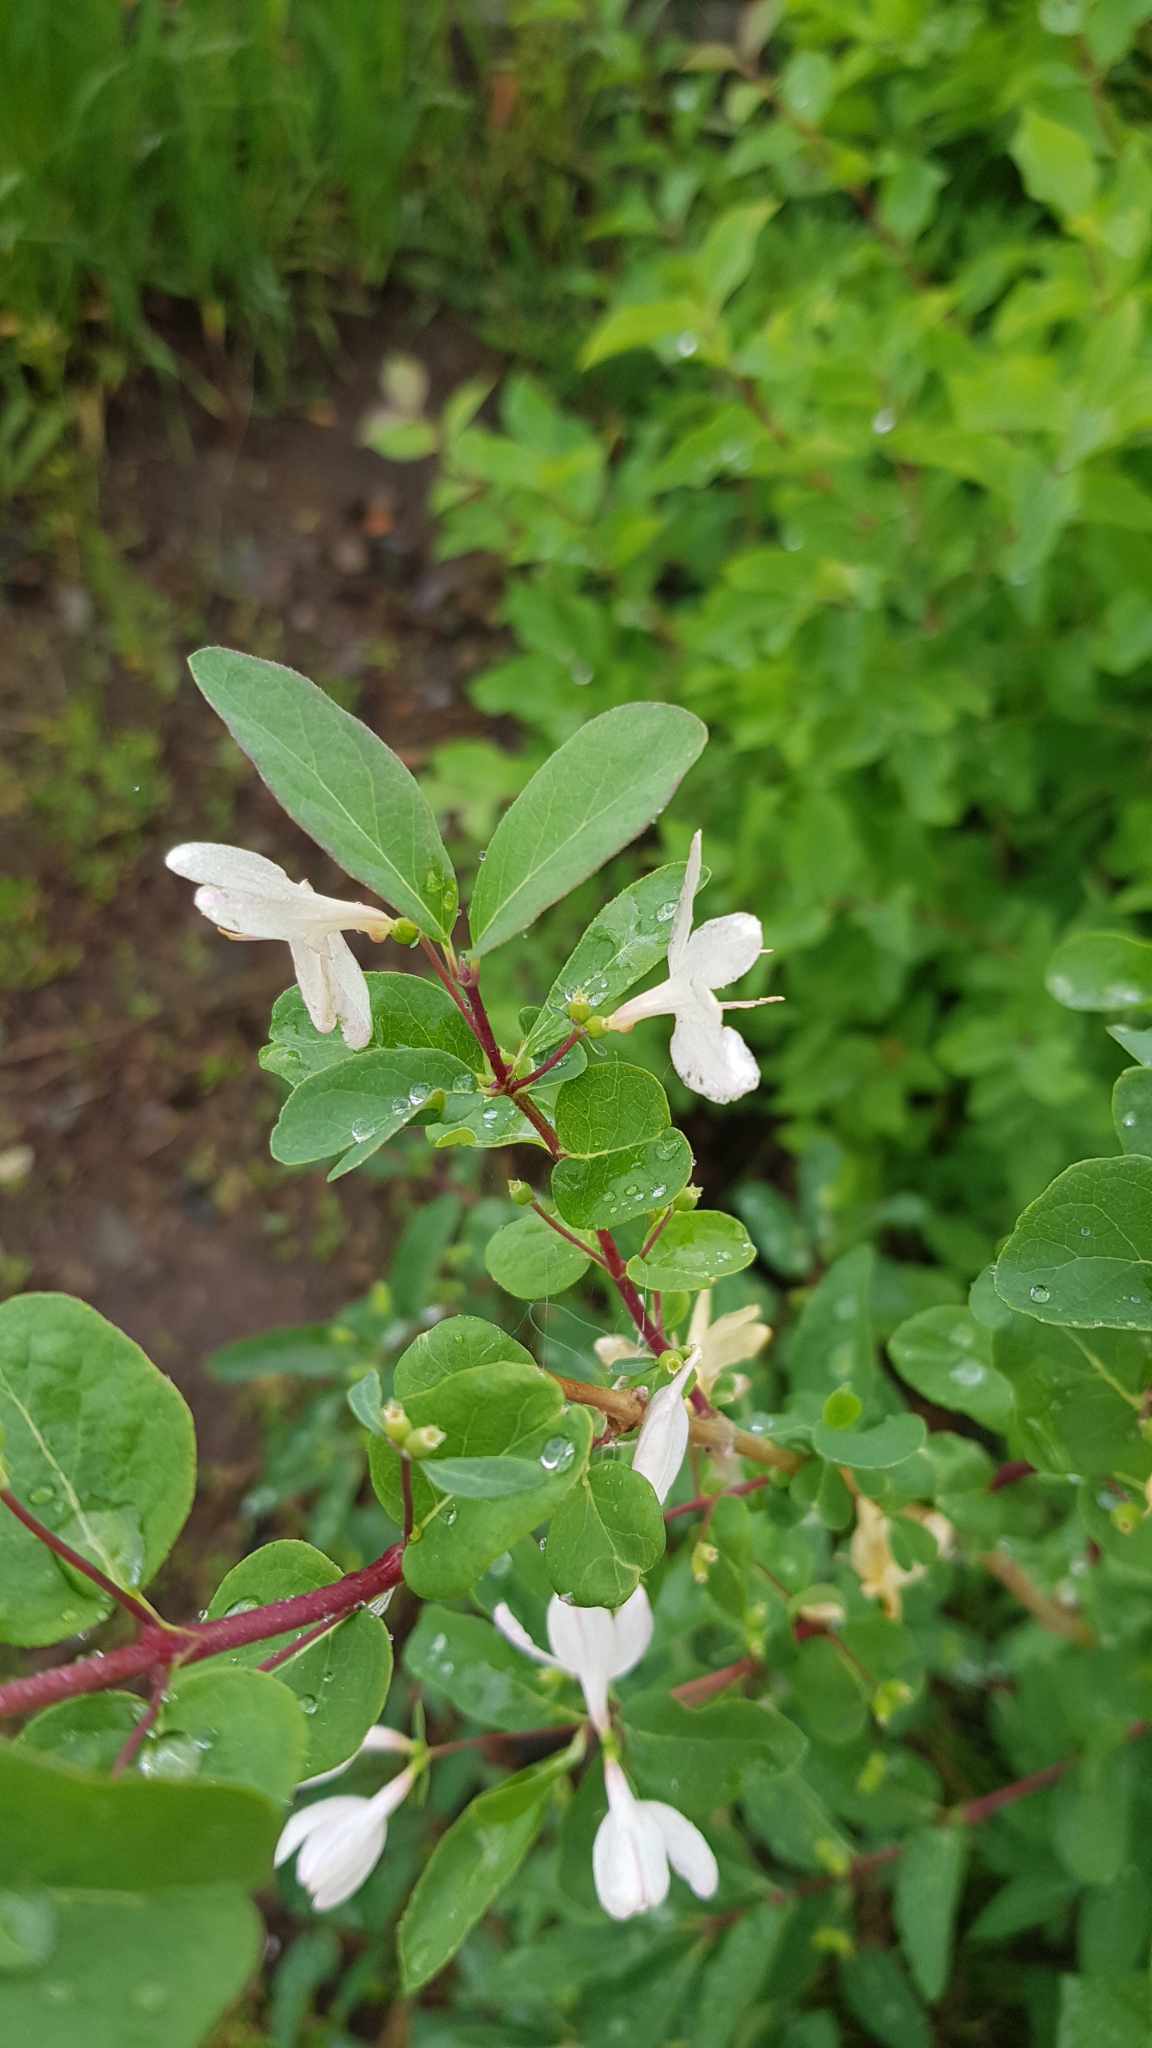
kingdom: Plantae
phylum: Tracheophyta
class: Magnoliopsida
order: Dipsacales
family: Caprifoliaceae
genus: Lonicera
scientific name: Lonicera tatarica
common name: Tatarian honeysuckle
